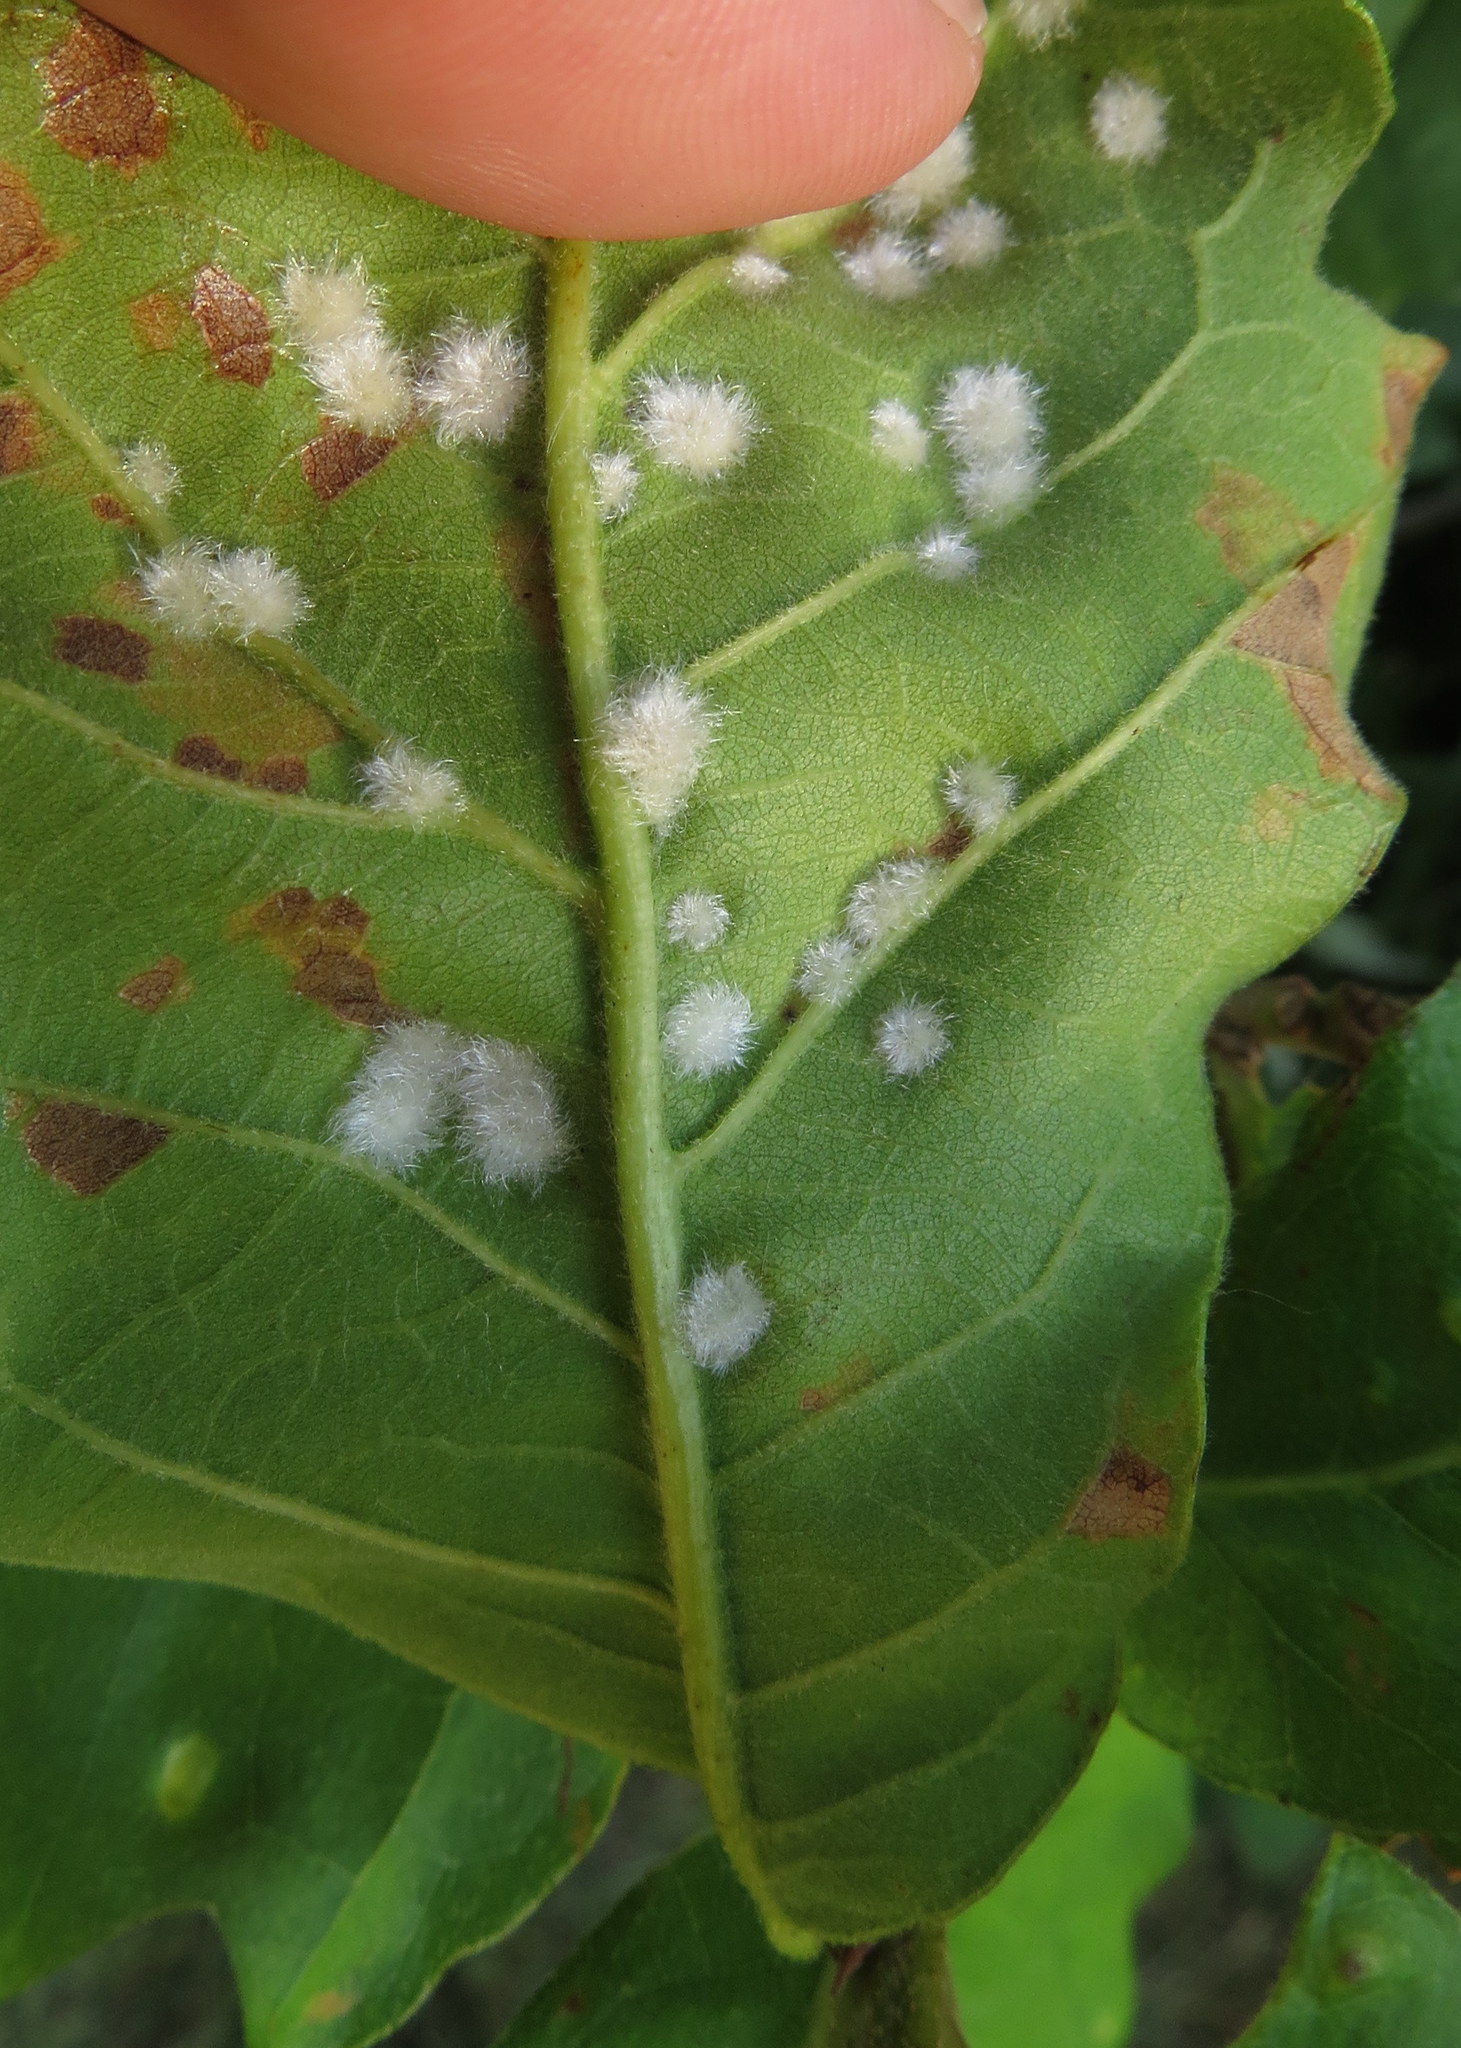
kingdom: Animalia
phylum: Arthropoda
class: Insecta
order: Hymenoptera
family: Cynipidae
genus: Neuroterus
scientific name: Neuroterus floccosus
